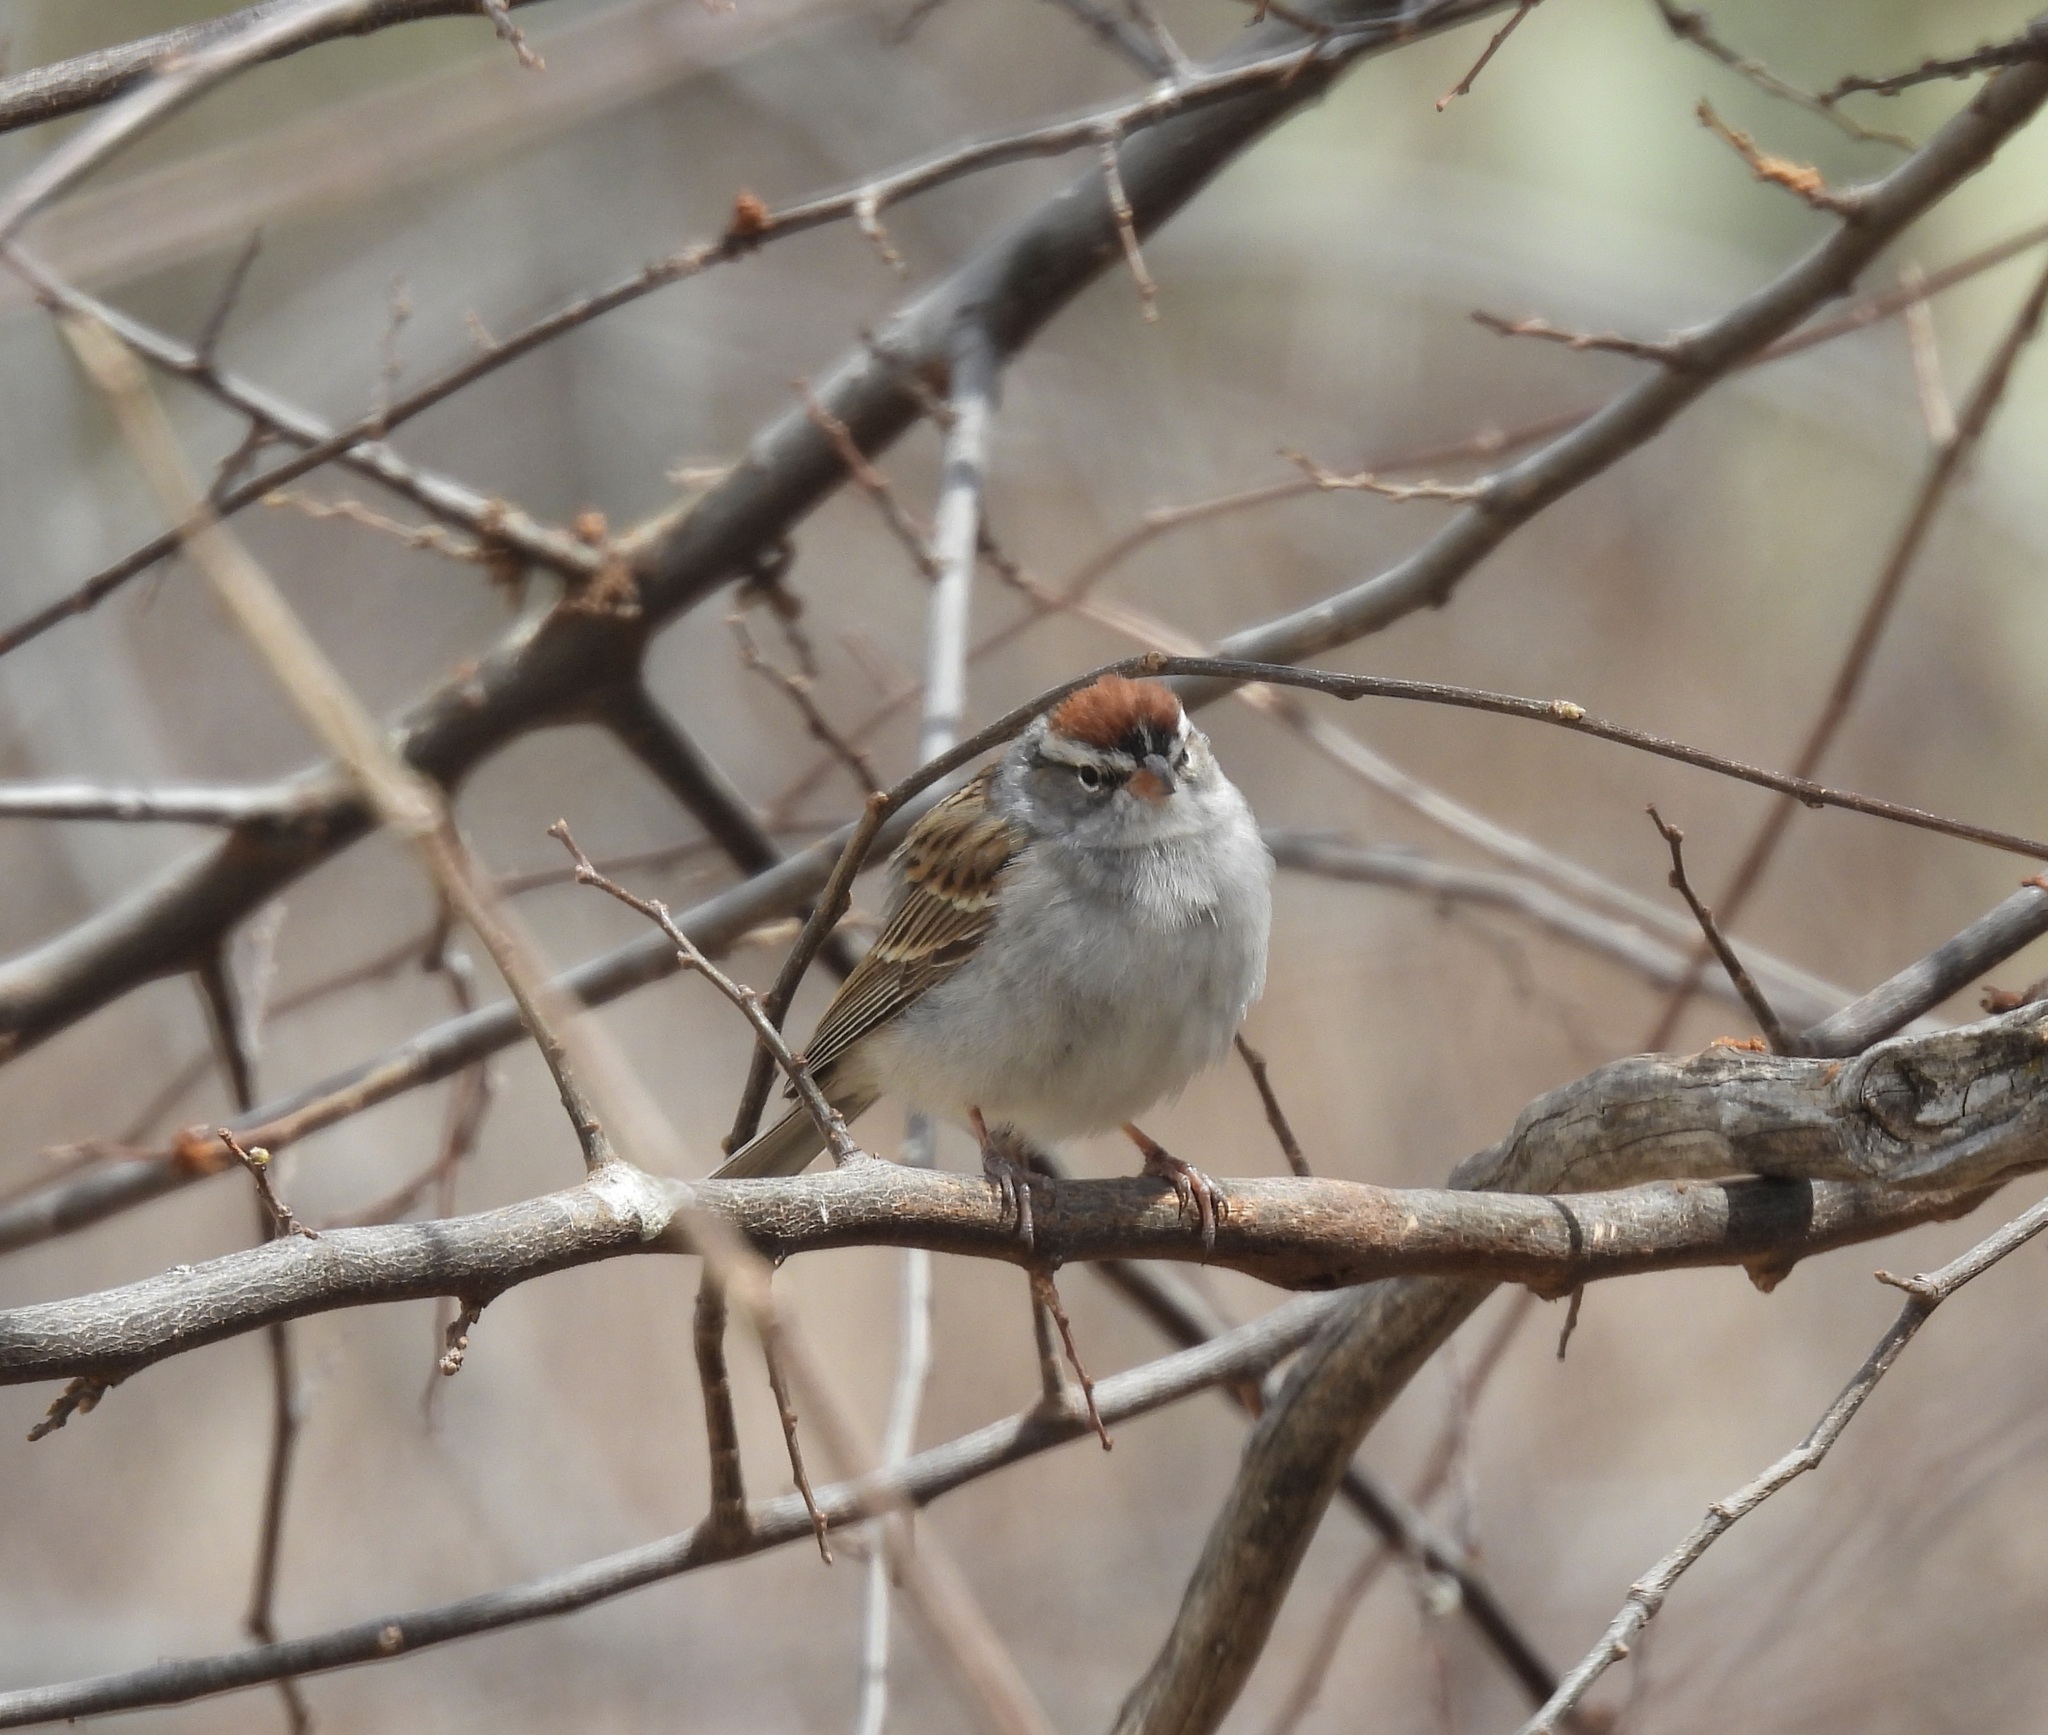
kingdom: Animalia
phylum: Chordata
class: Aves
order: Passeriformes
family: Passerellidae
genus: Spizella
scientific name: Spizella passerina
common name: Chipping sparrow
